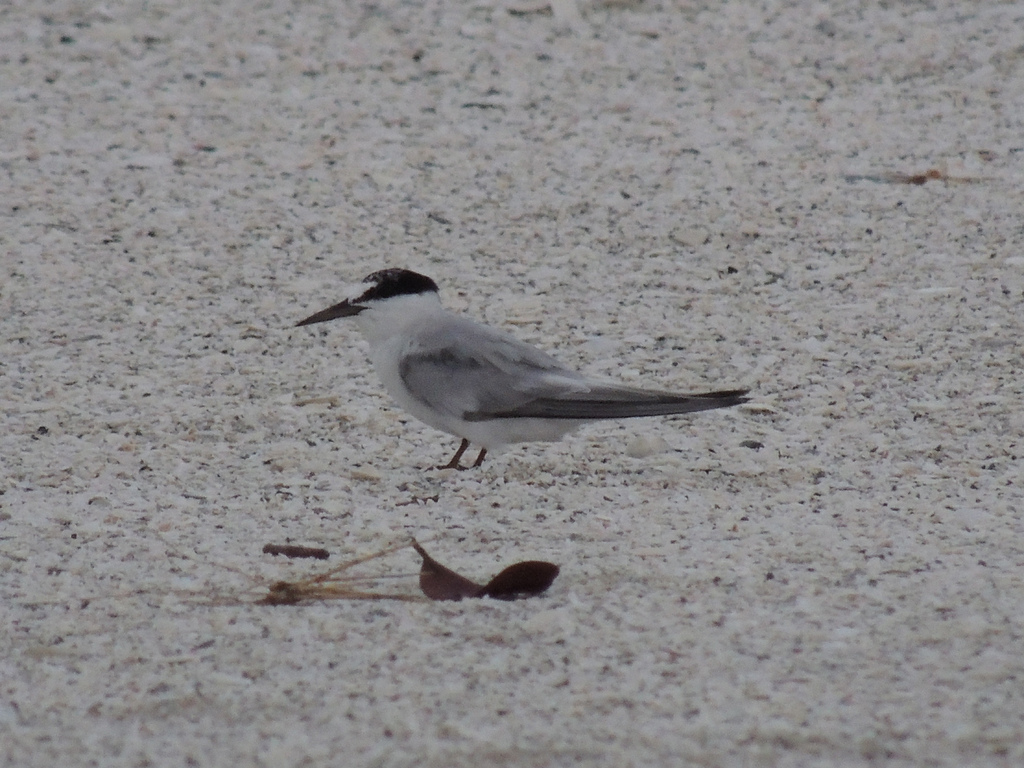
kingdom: Animalia
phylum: Chordata
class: Aves
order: Charadriiformes
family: Laridae
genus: Sternula
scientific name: Sternula antillarum
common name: Least tern
